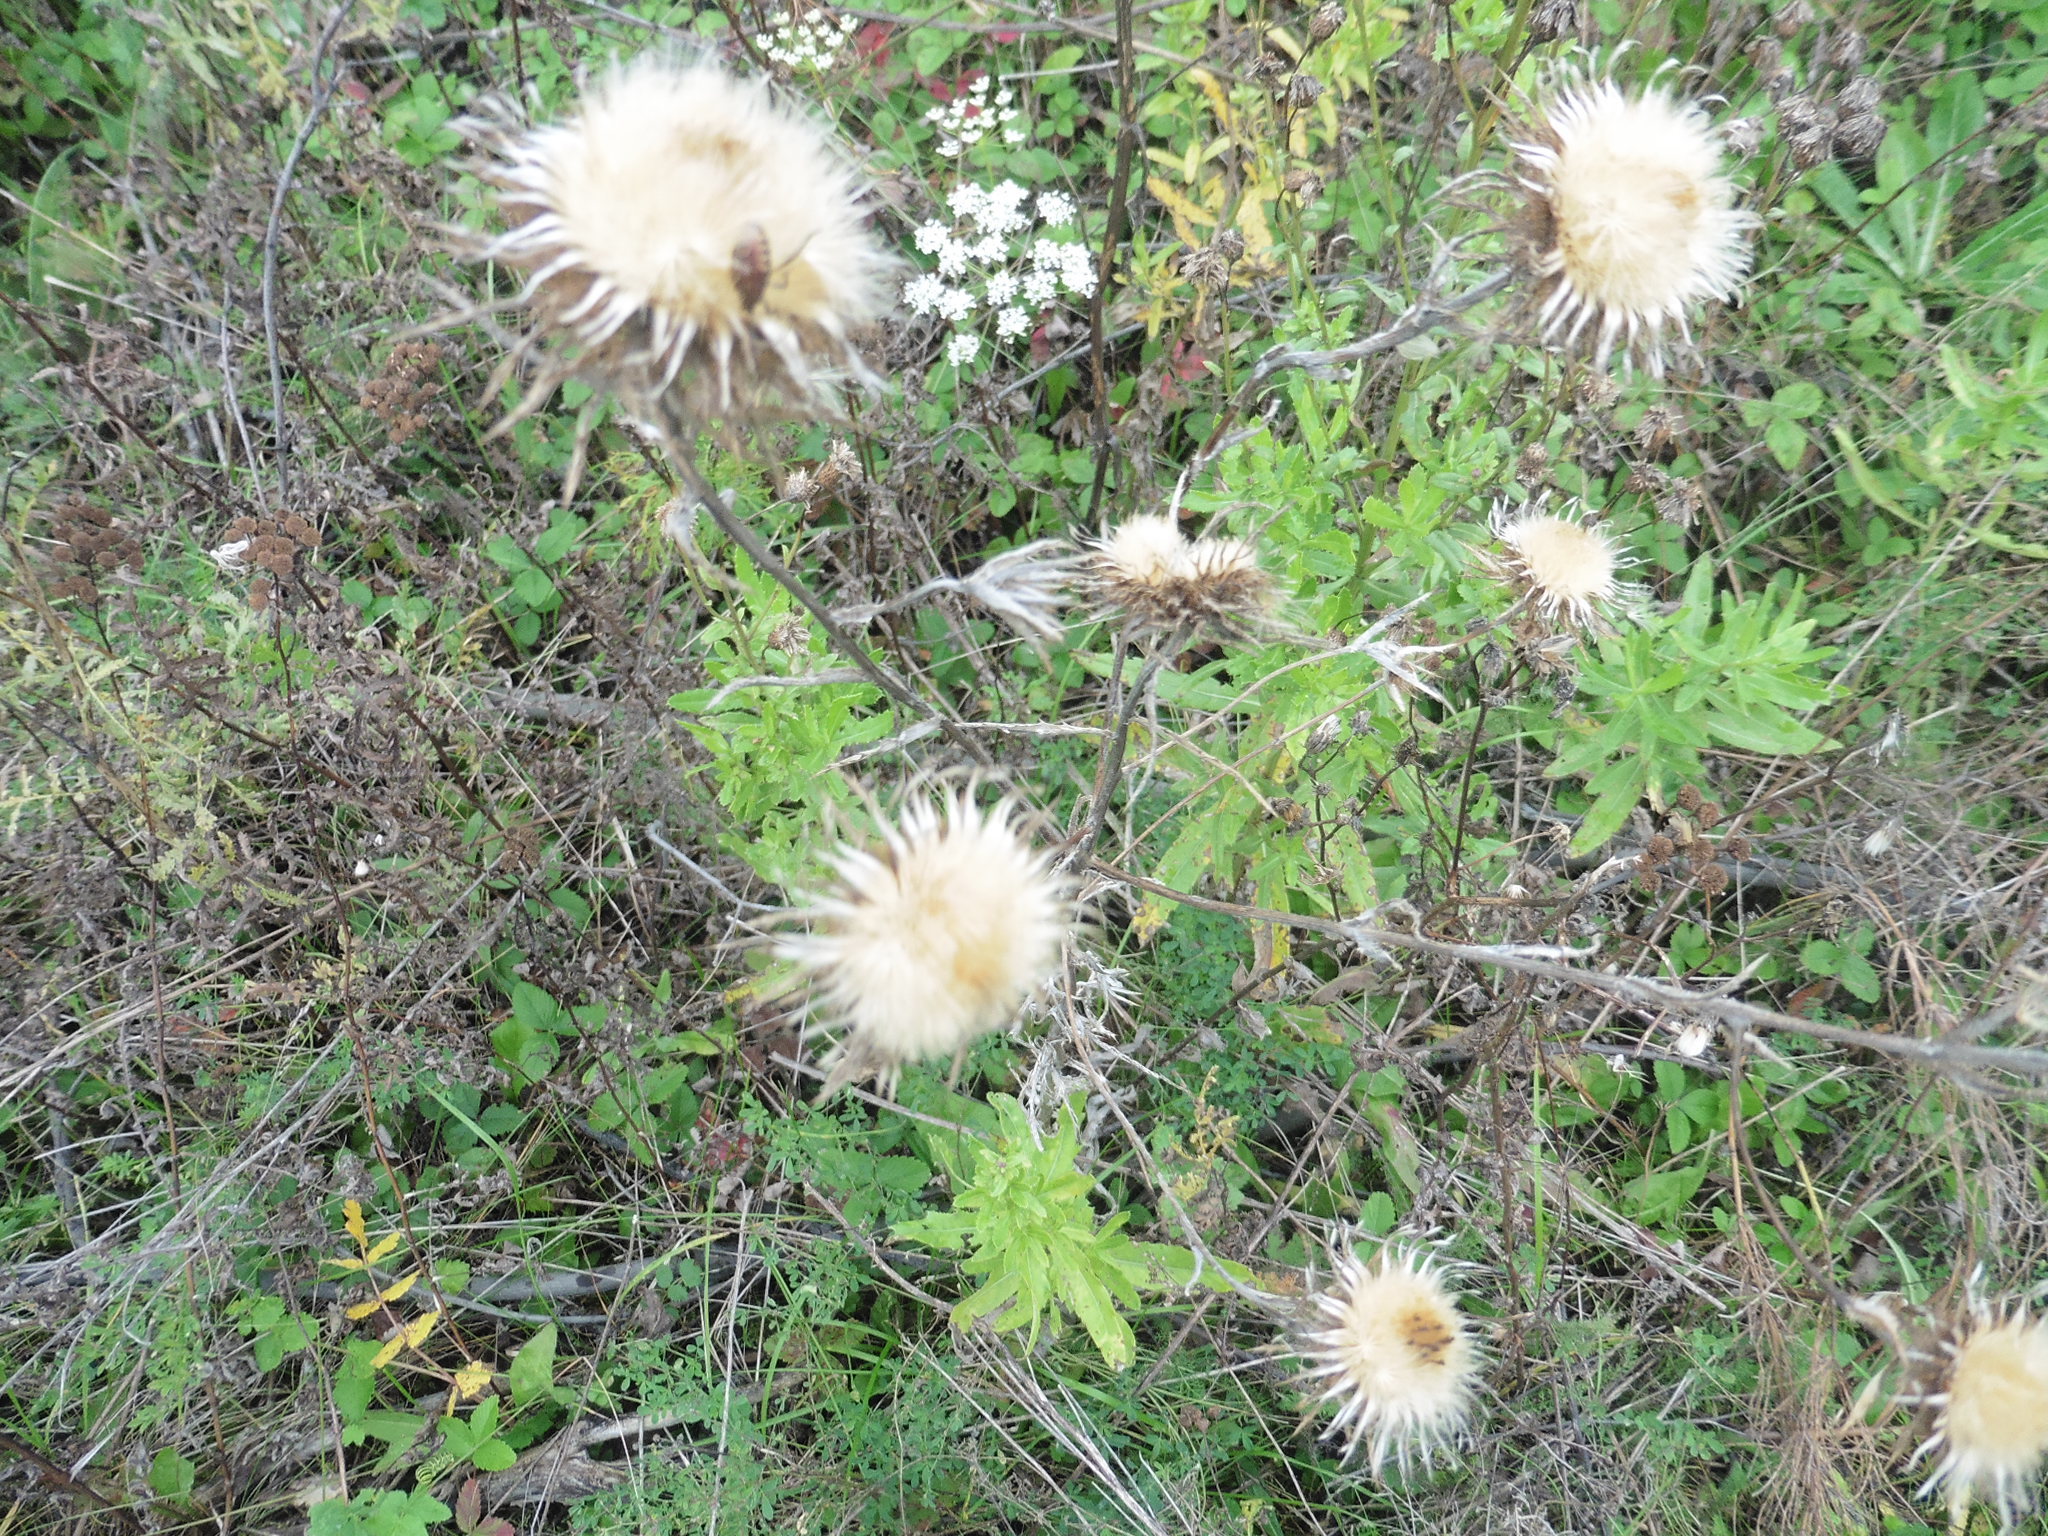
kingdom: Plantae
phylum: Tracheophyta
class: Magnoliopsida
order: Asterales
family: Asteraceae
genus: Carlina
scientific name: Carlina biebersteinii
